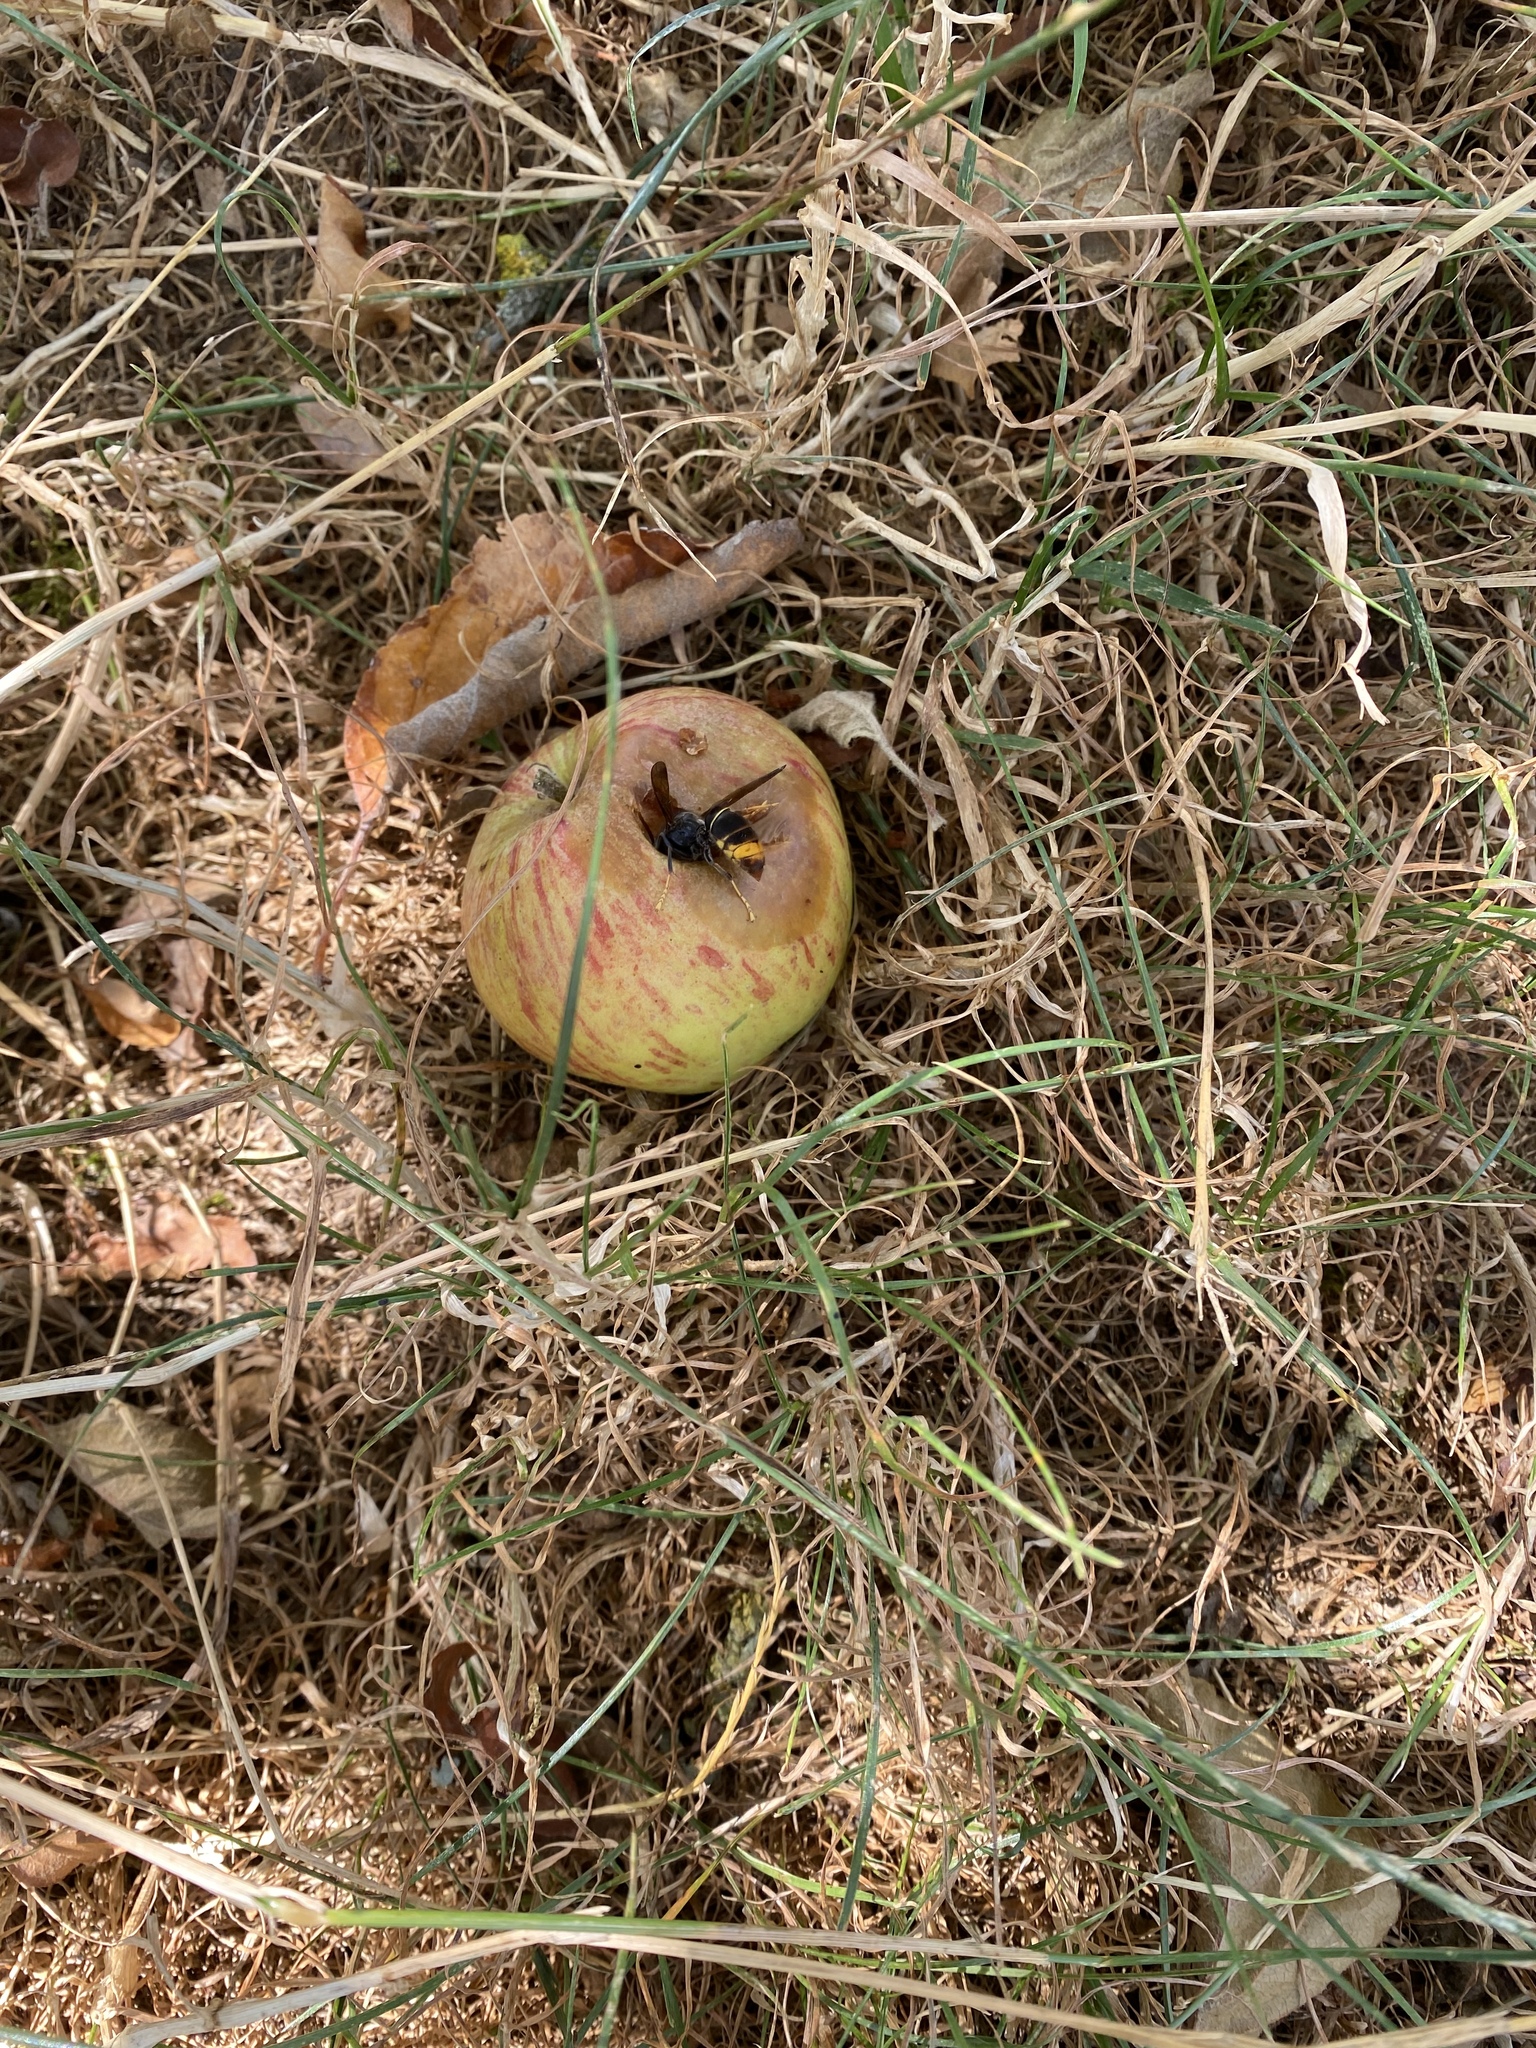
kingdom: Animalia
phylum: Arthropoda
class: Insecta
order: Hymenoptera
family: Vespidae
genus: Vespa
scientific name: Vespa velutina
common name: Asian hornet
